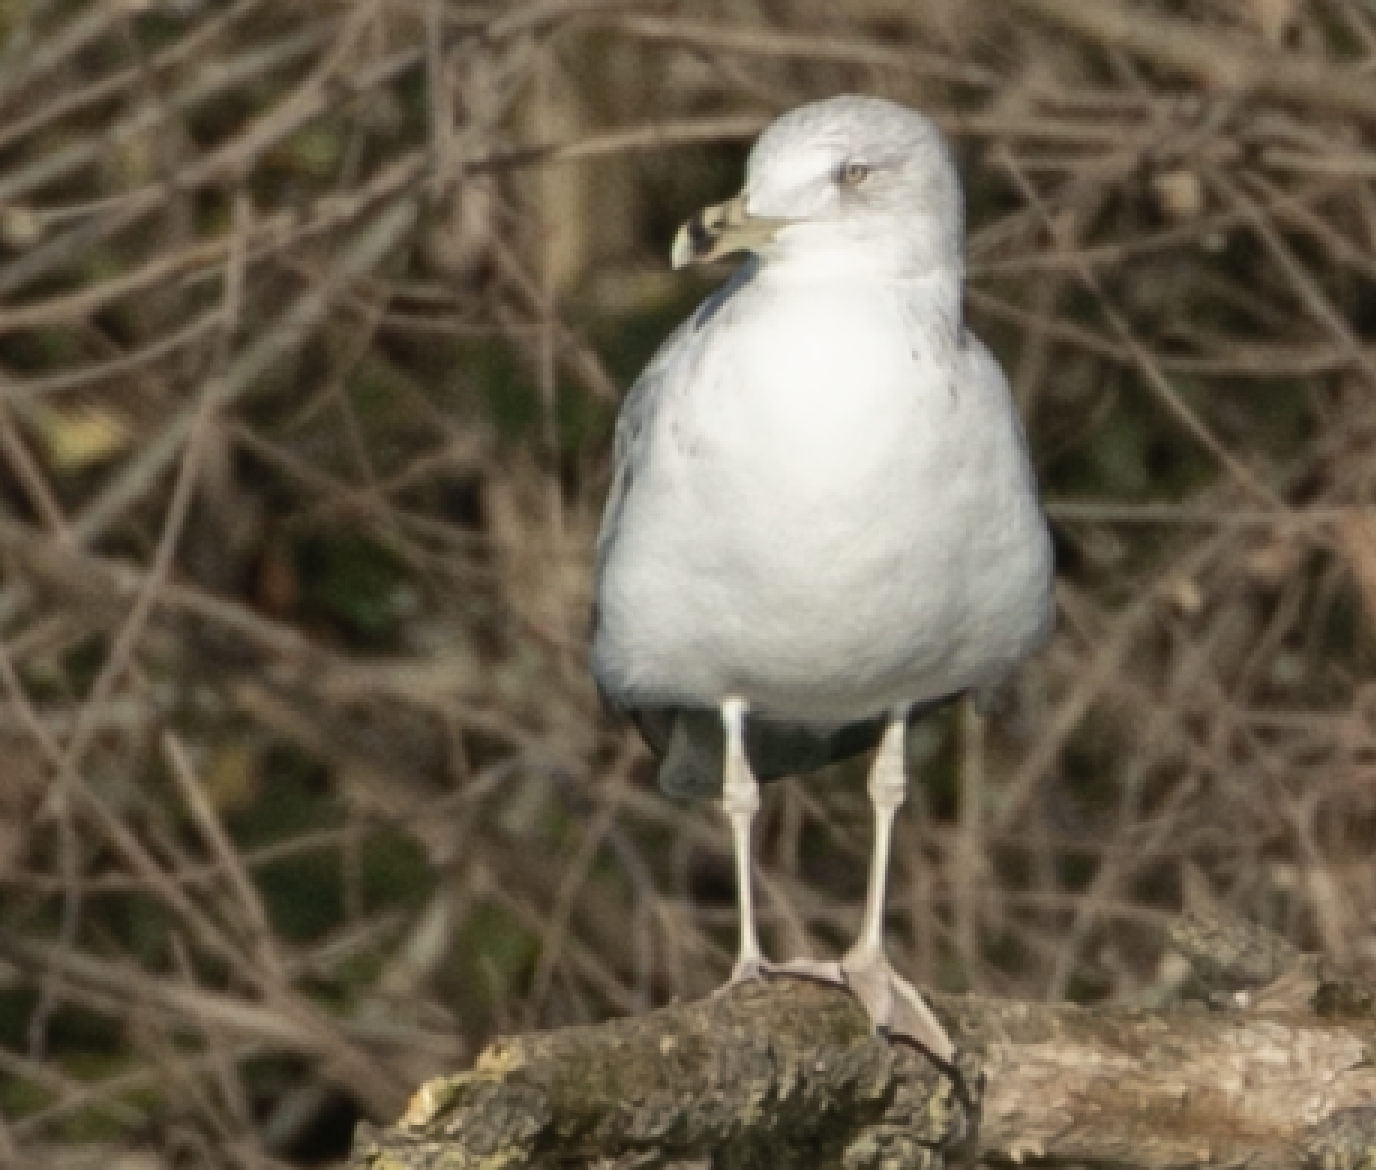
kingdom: Animalia
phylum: Chordata
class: Aves
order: Charadriiformes
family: Laridae
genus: Larus
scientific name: Larus michahellis
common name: Yellow-legged gull
